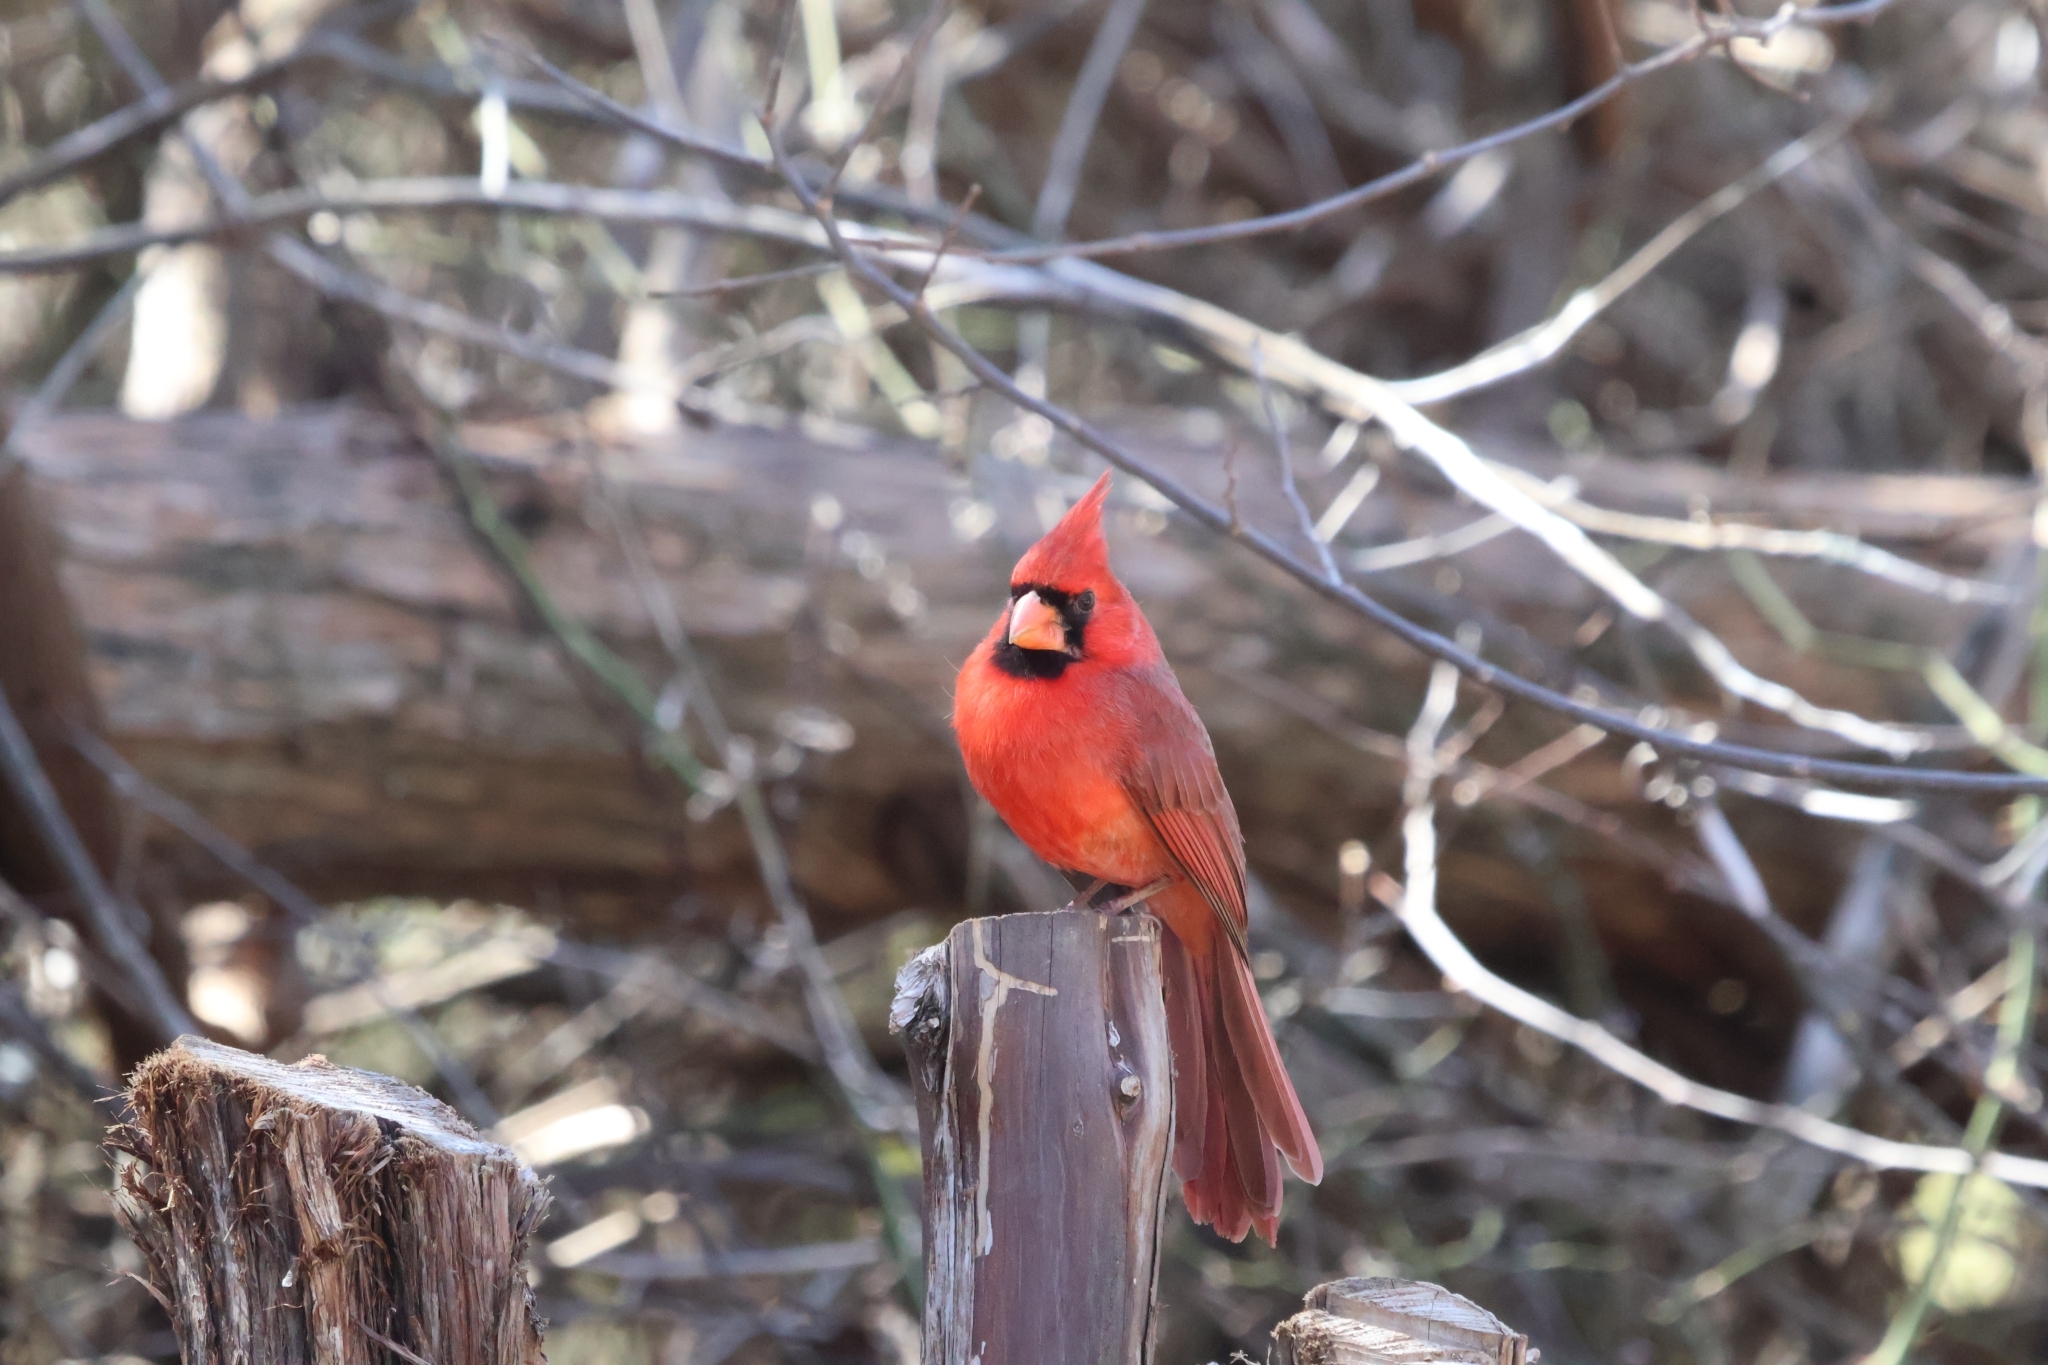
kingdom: Animalia
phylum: Chordata
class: Aves
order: Passeriformes
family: Cardinalidae
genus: Cardinalis
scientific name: Cardinalis cardinalis
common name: Northern cardinal
